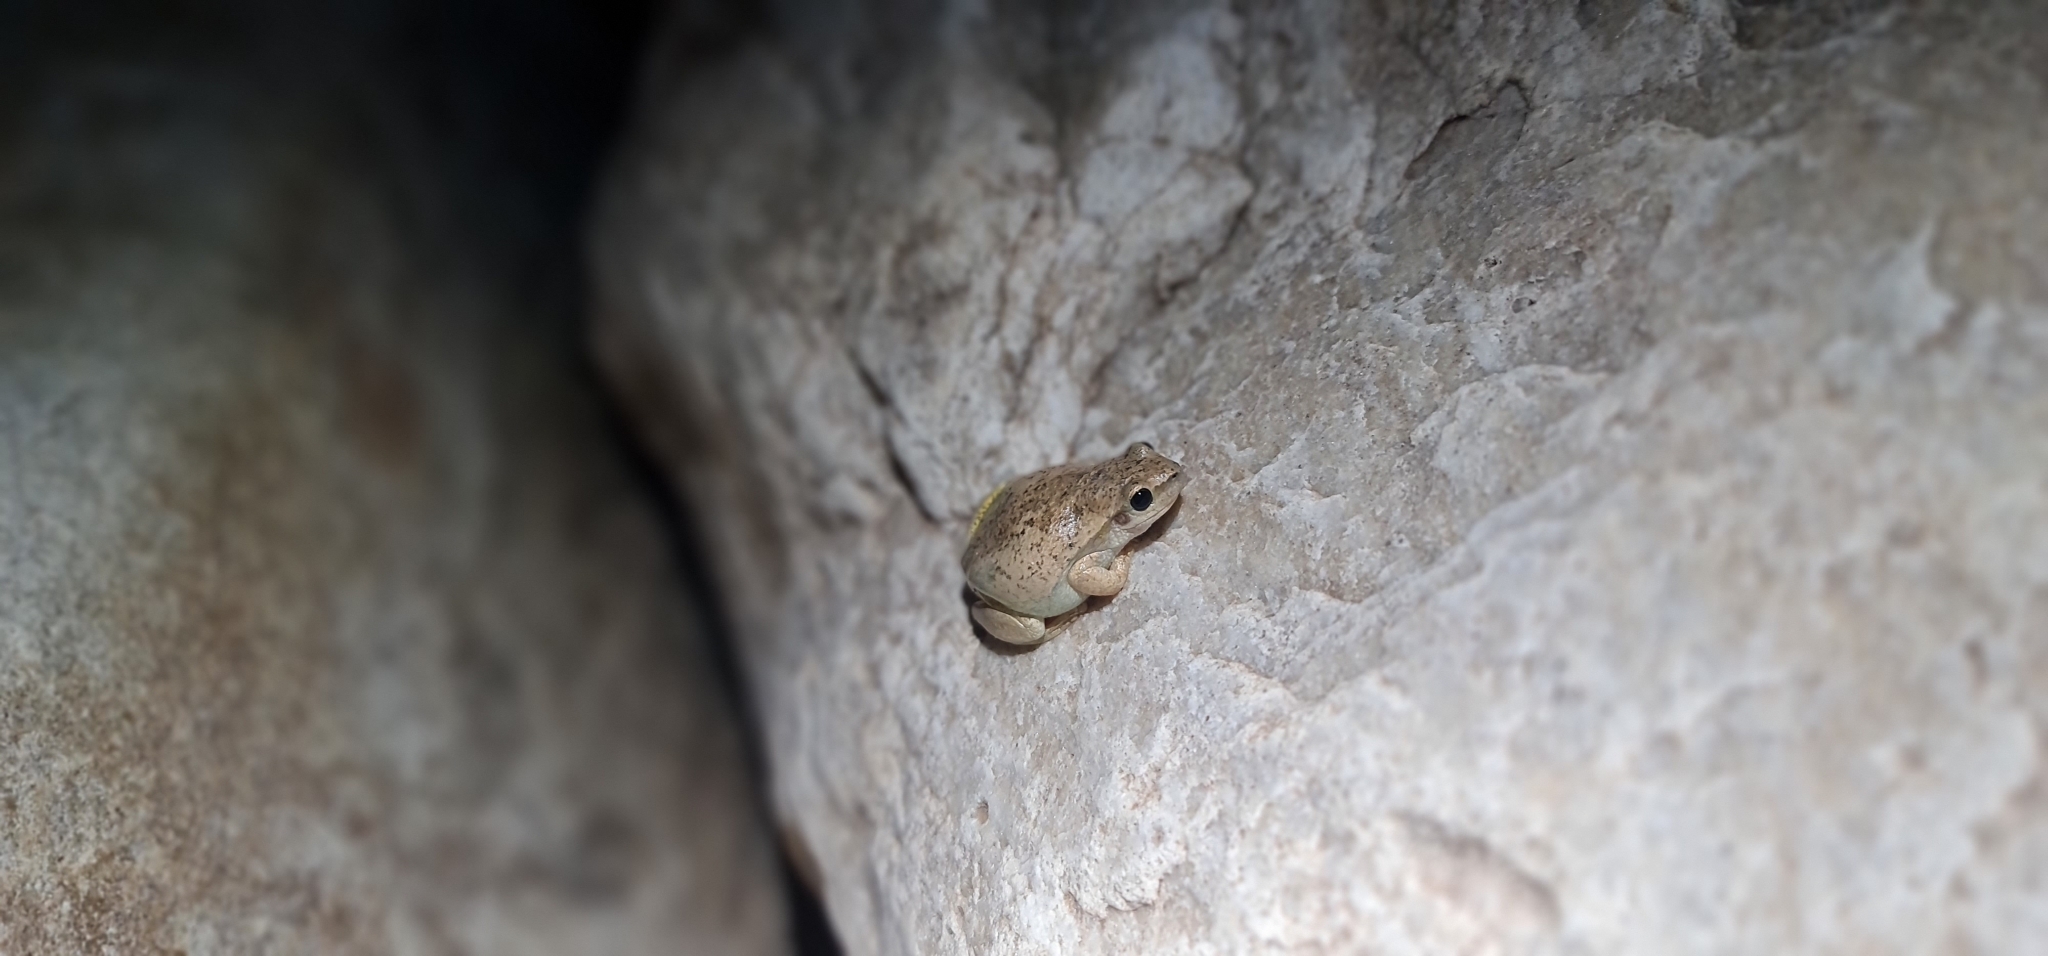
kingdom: Animalia
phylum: Chordata
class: Amphibia
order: Anura
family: Pelodryadidae
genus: Litoria
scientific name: Litoria rubella
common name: Desert tree frog
